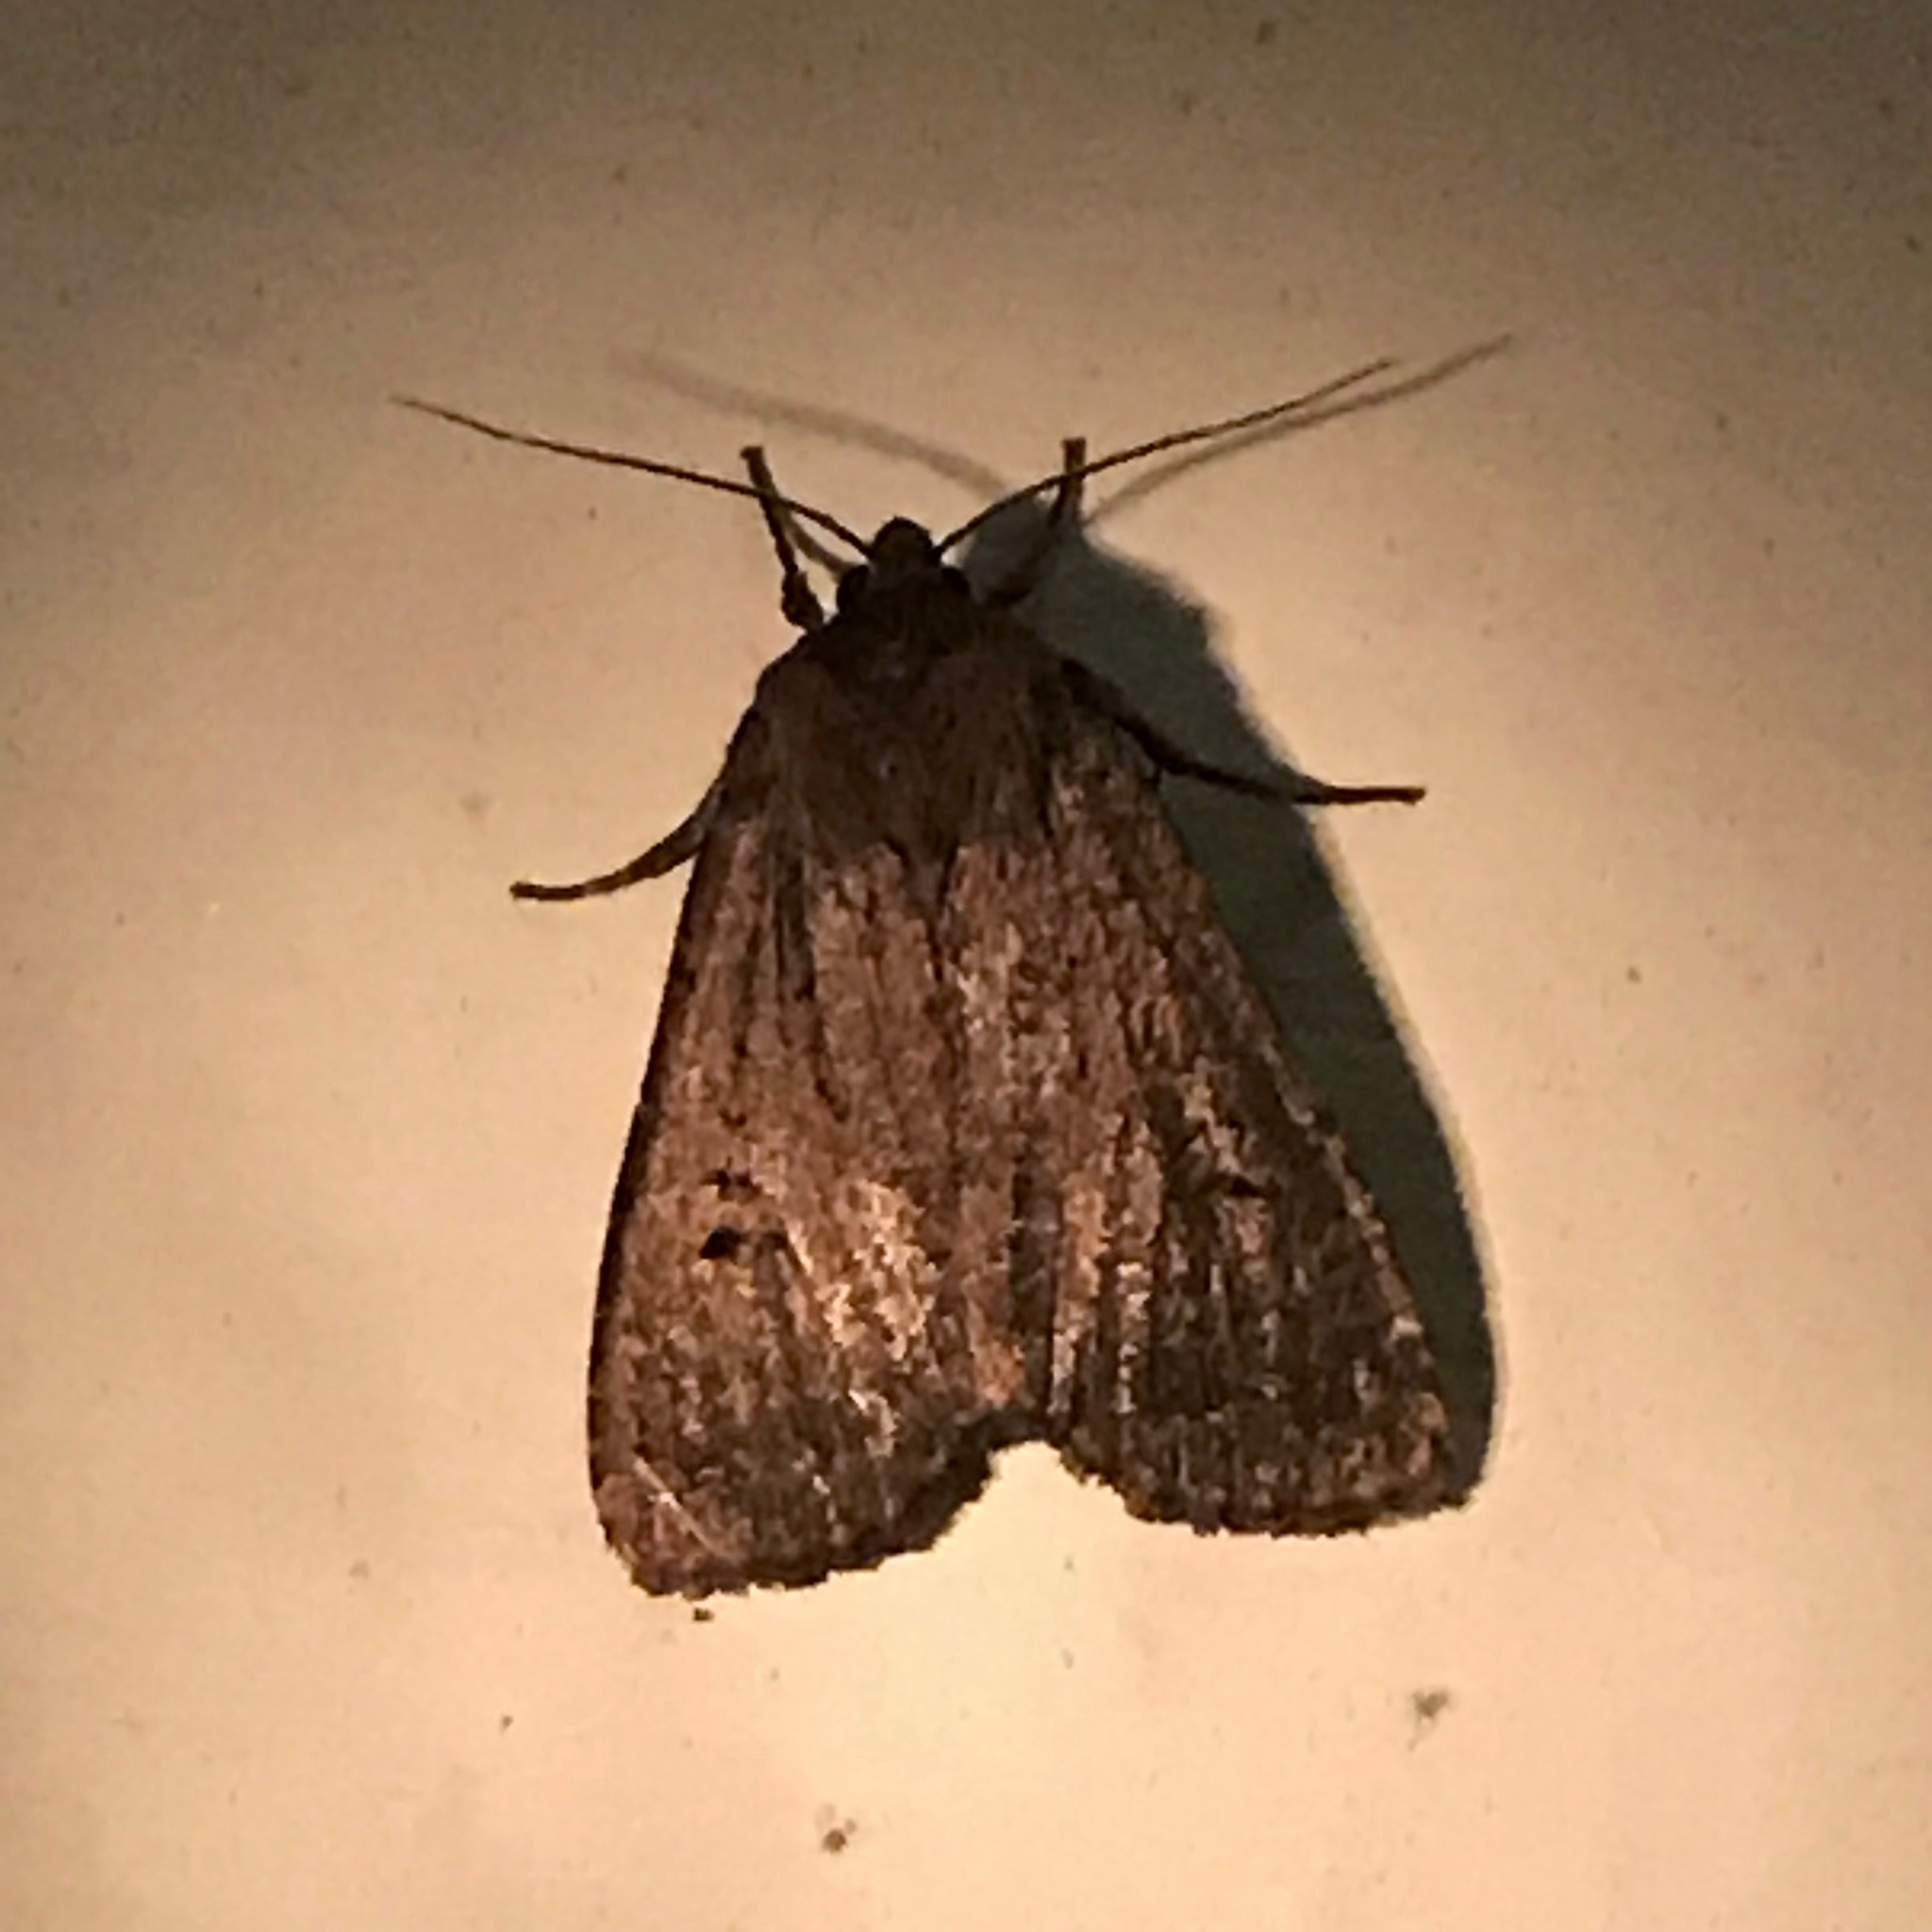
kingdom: Animalia
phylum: Arthropoda
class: Insecta
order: Lepidoptera
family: Noctuidae
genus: Graphiphora
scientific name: Graphiphora augur
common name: Double dart
